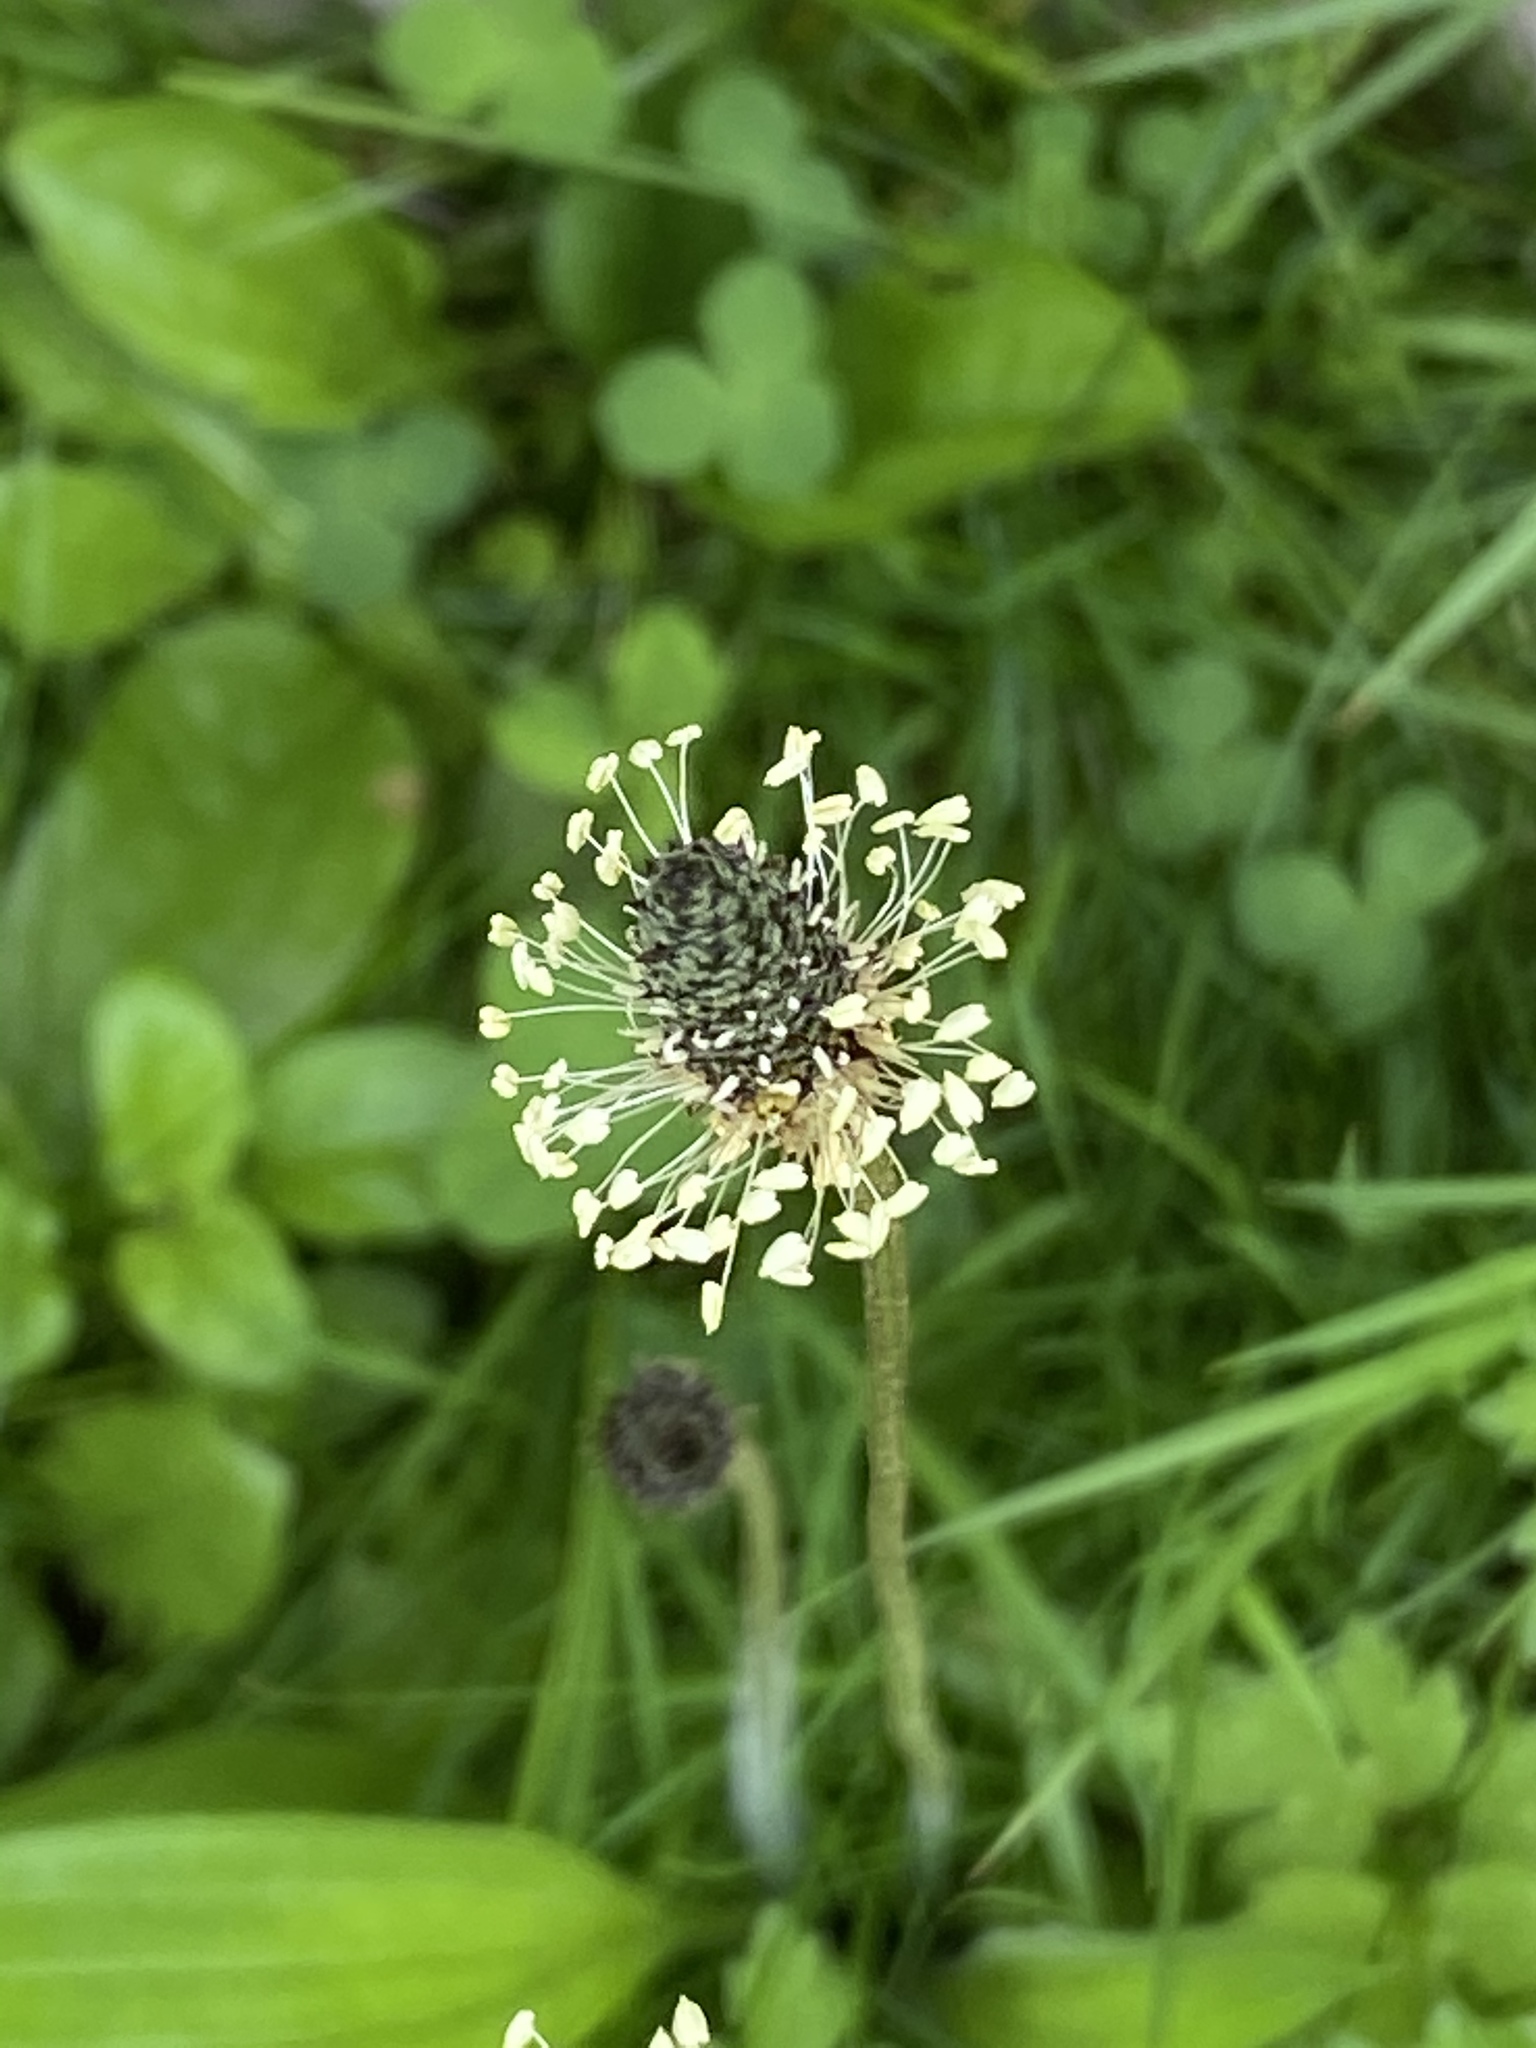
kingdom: Plantae
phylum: Tracheophyta
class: Magnoliopsida
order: Lamiales
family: Plantaginaceae
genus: Plantago
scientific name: Plantago lanceolata
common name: Ribwort plantain
